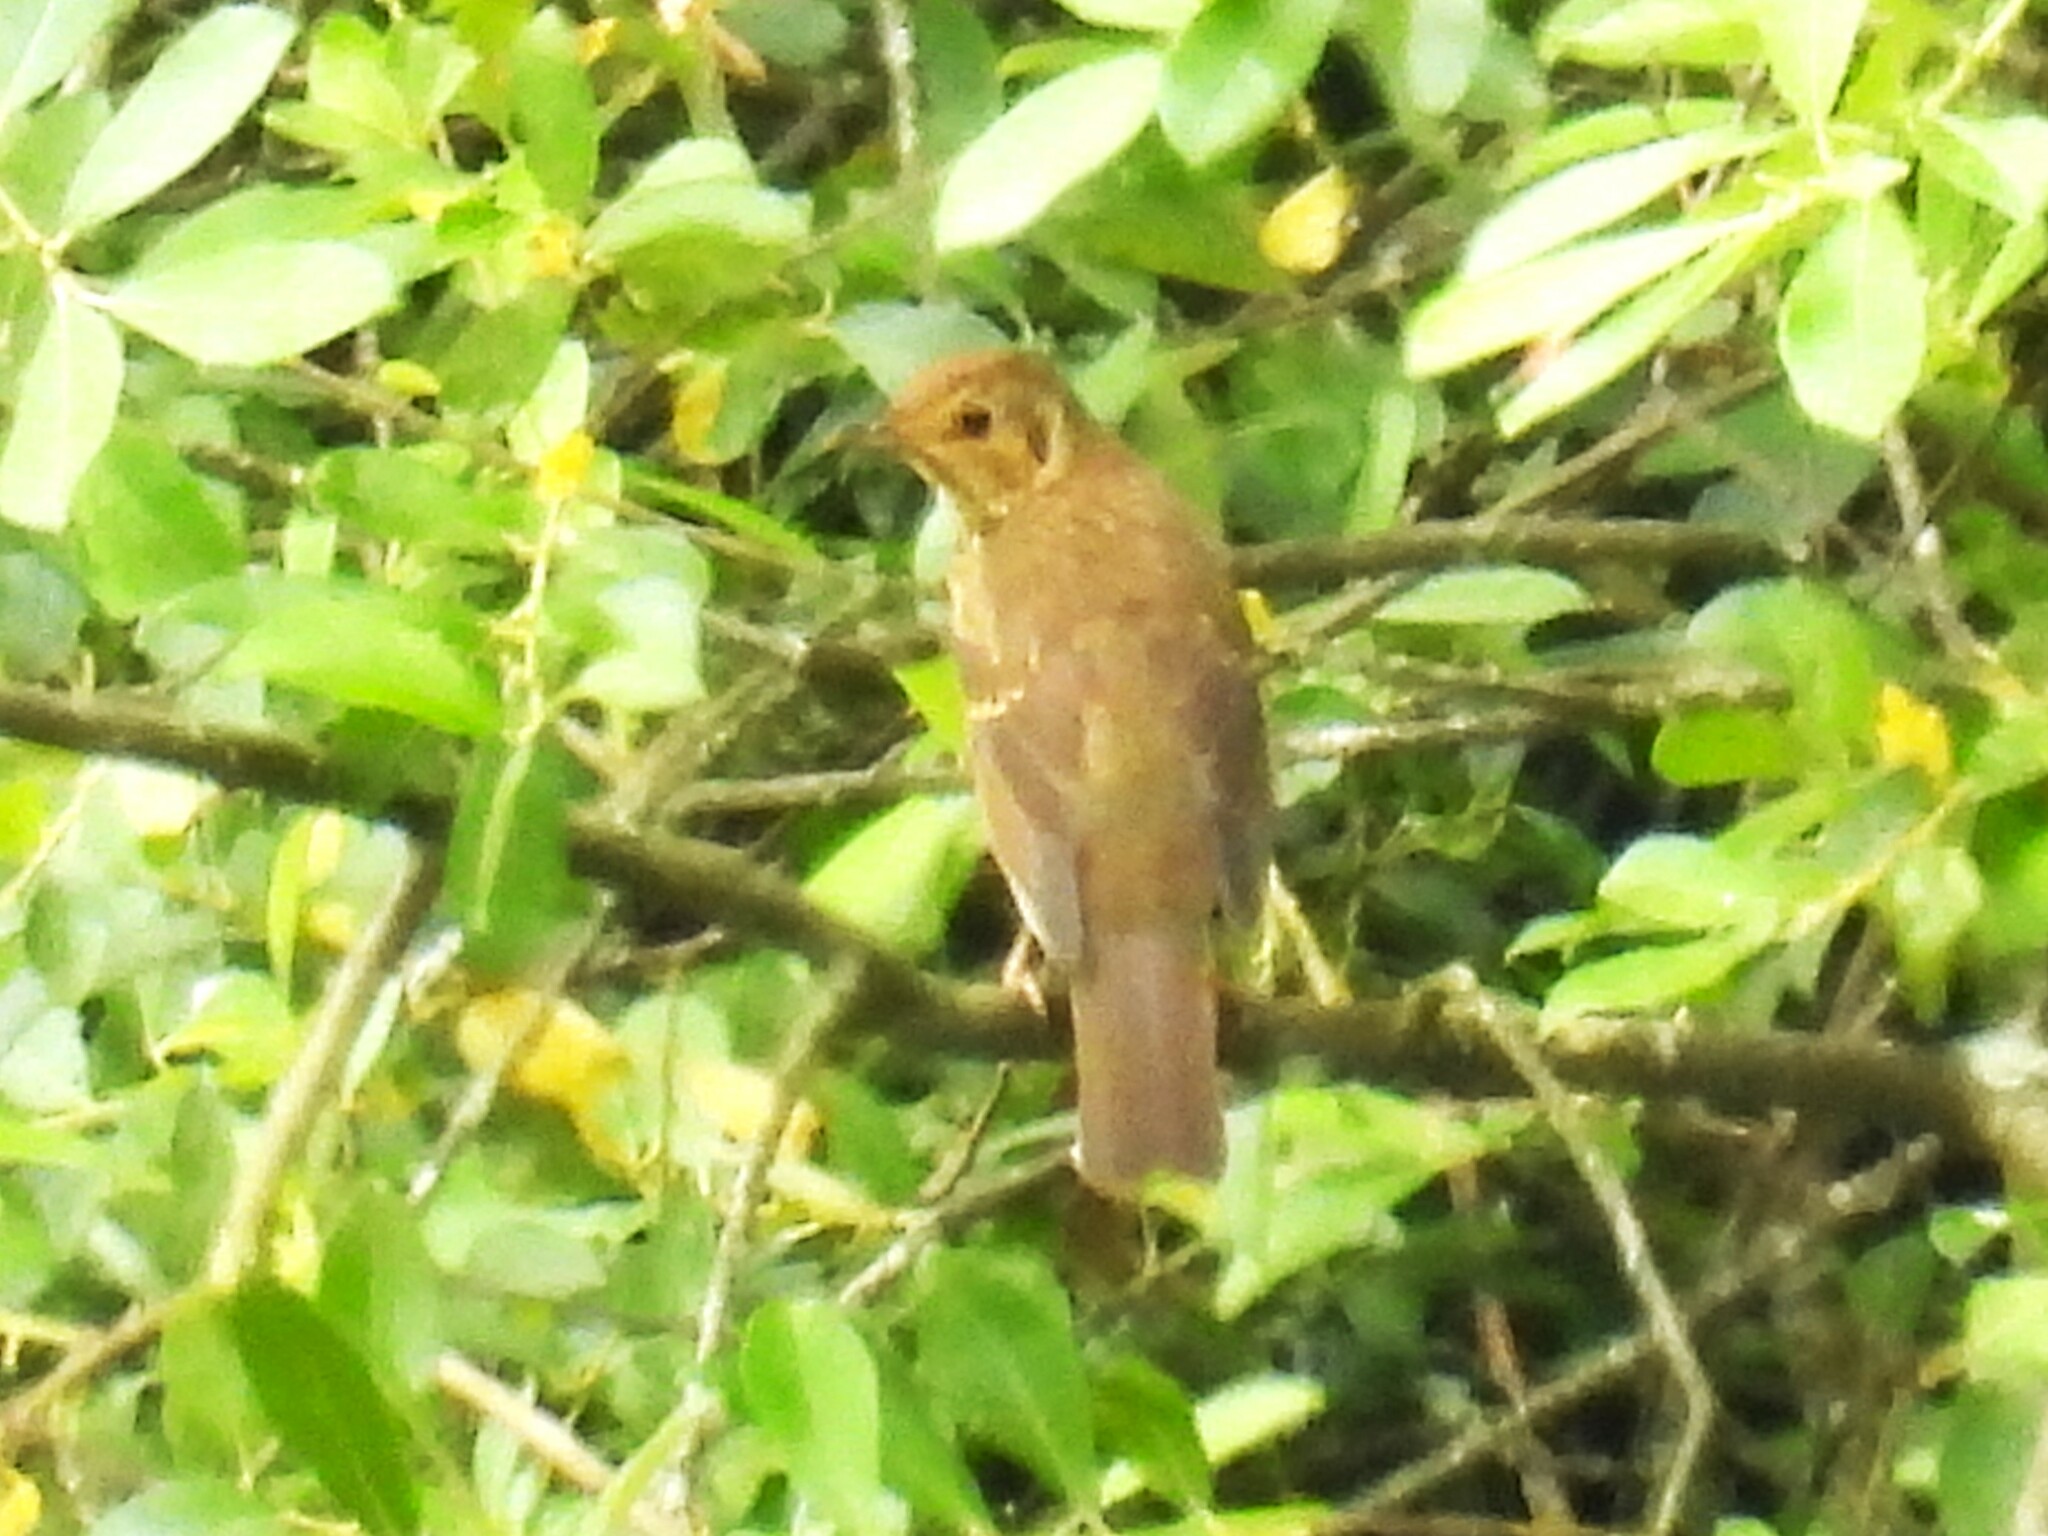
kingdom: Animalia
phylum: Chordata
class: Aves
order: Passeriformes
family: Turdidae
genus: Turdus
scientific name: Turdus philomelos
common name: Song thrush
